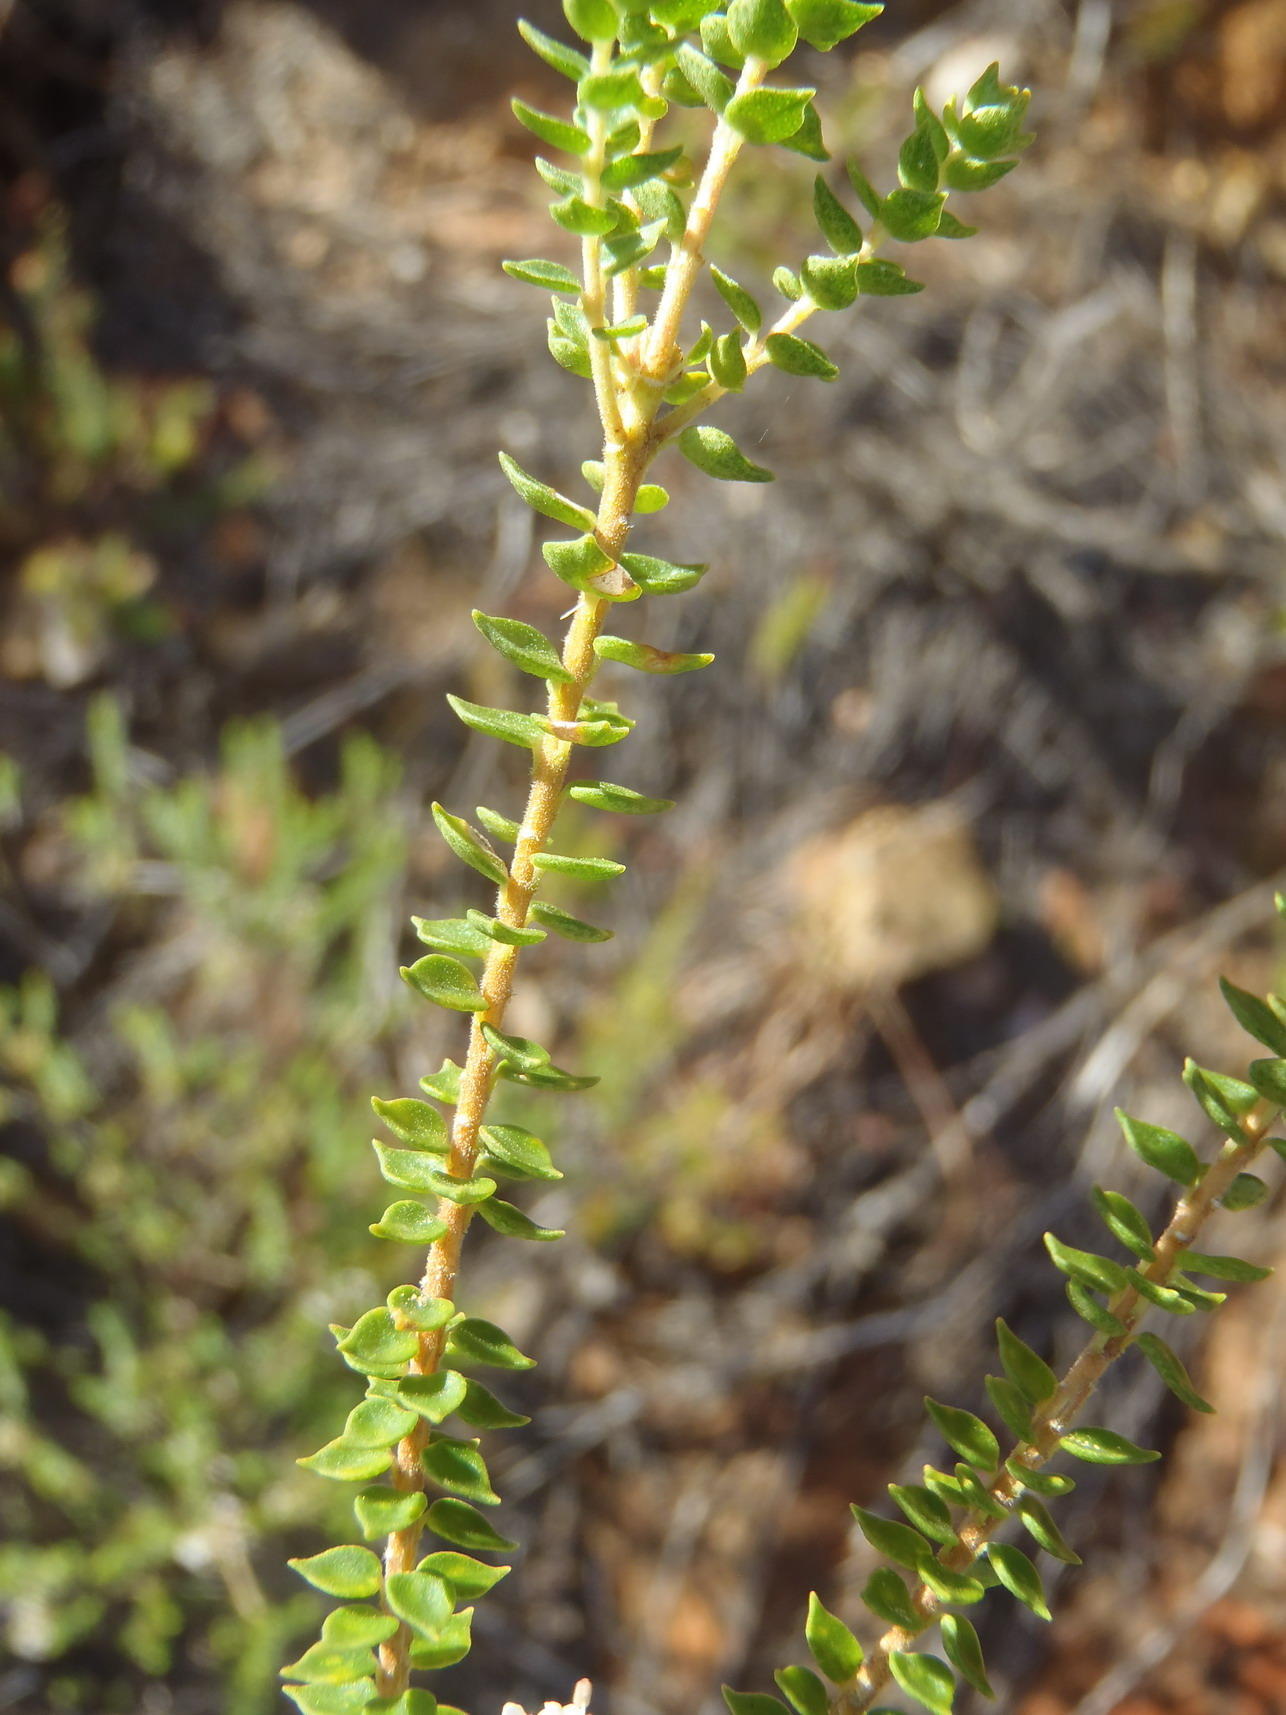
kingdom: Plantae
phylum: Tracheophyta
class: Magnoliopsida
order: Sapindales
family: Rutaceae
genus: Agathosma
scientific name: Agathosma roodebergensis
